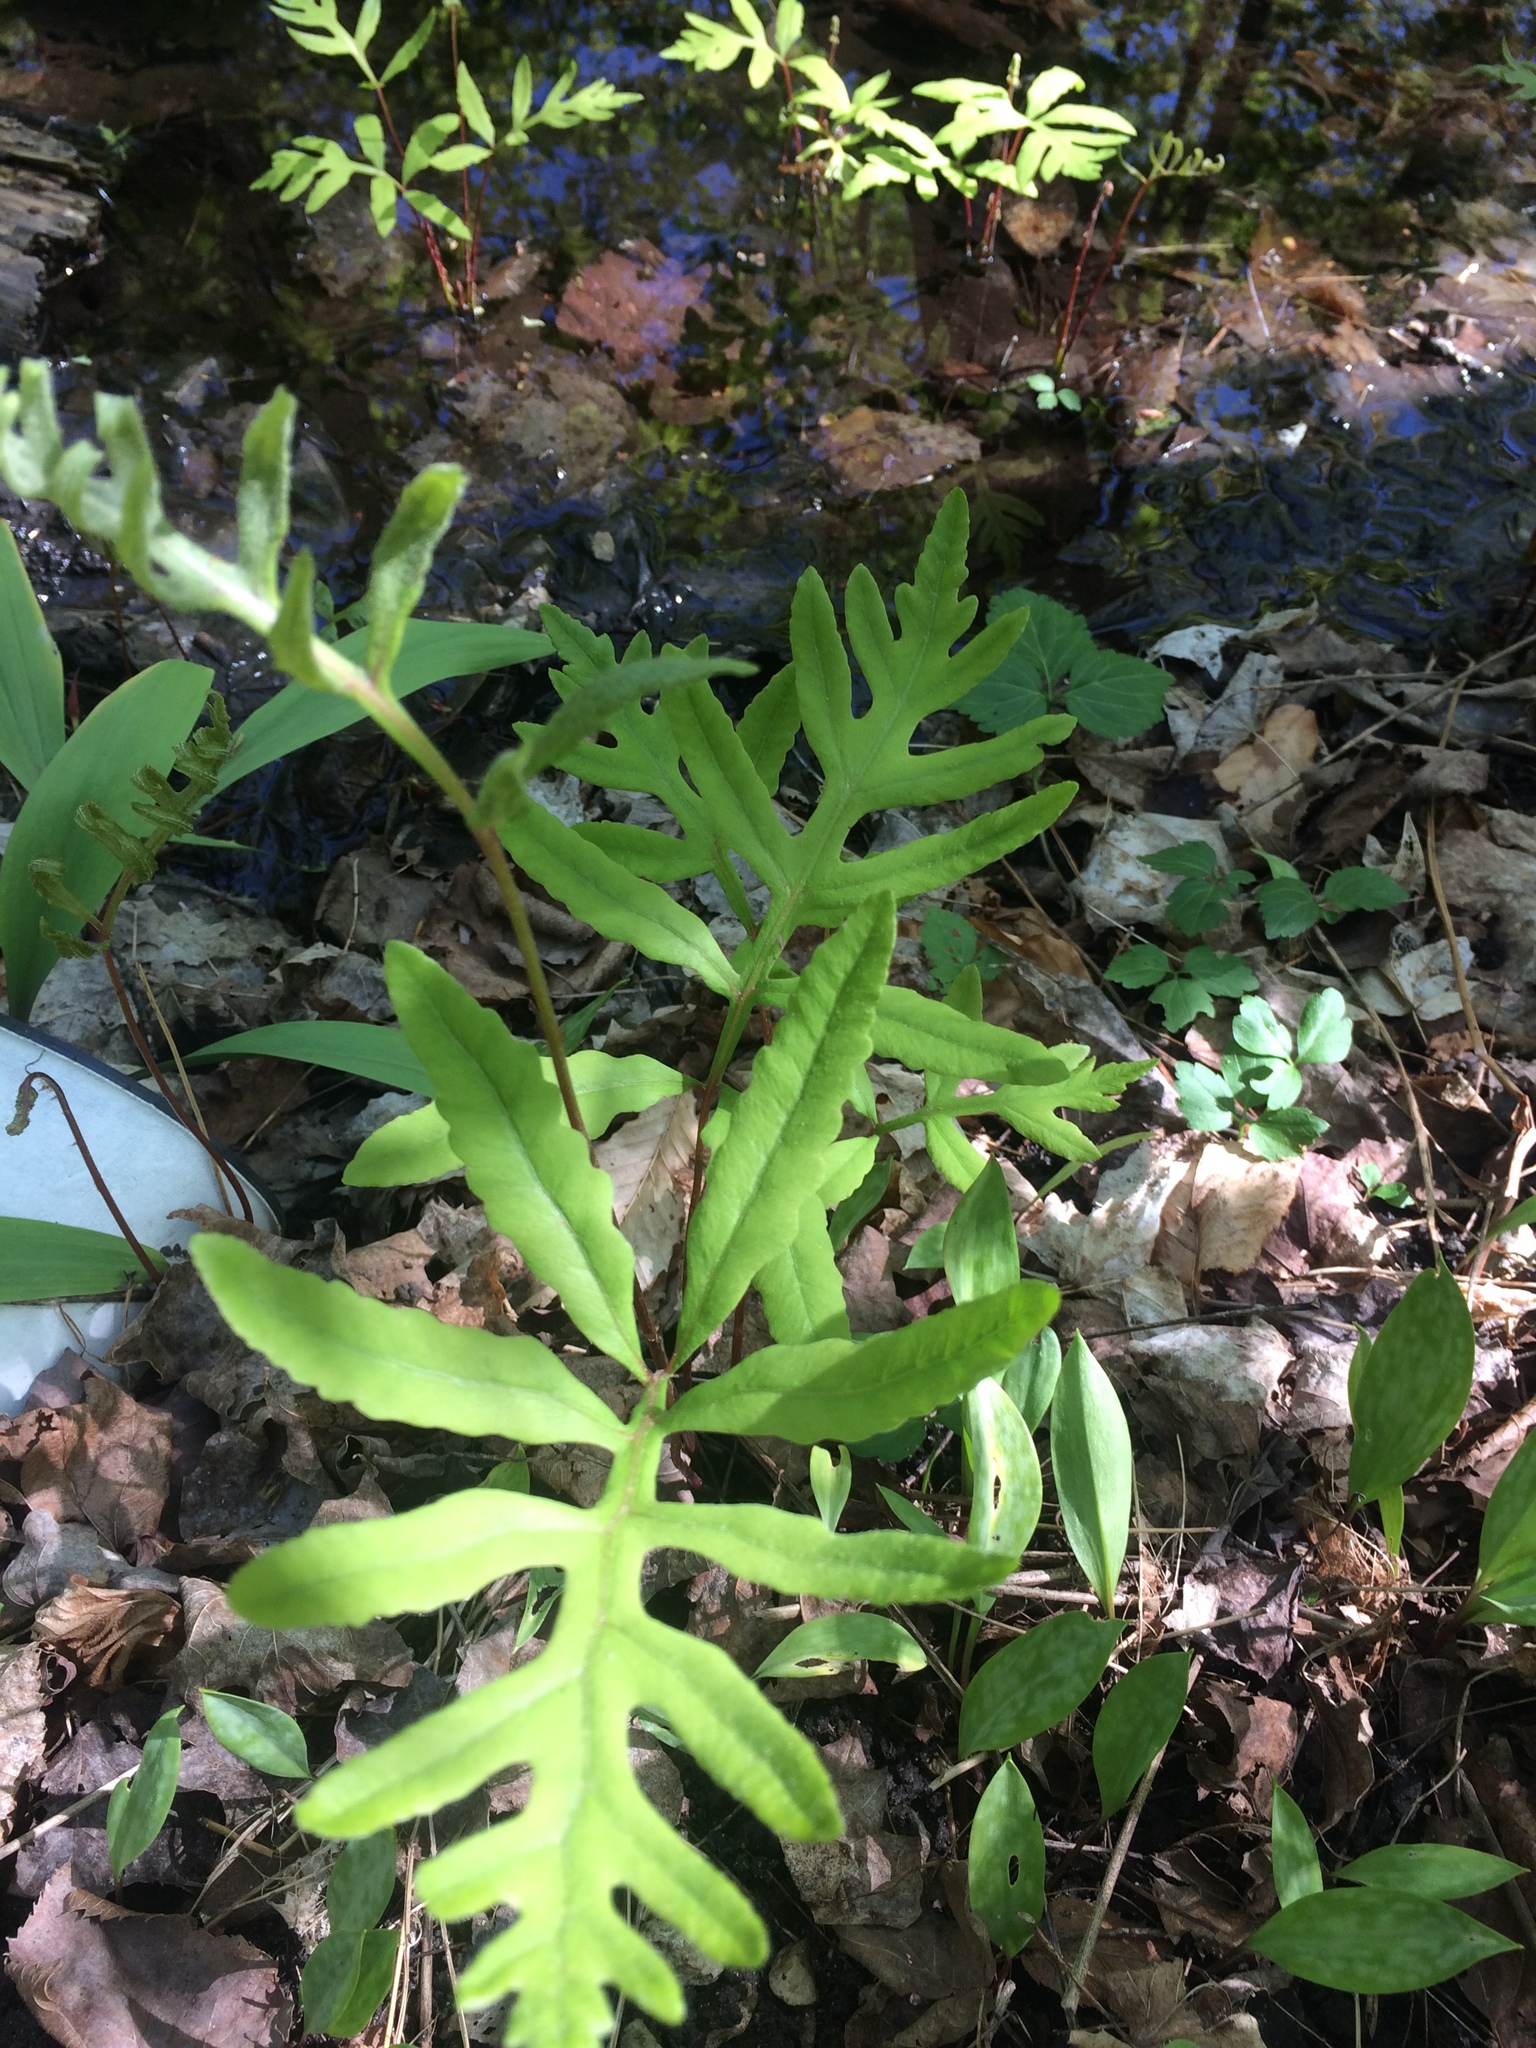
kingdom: Plantae
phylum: Tracheophyta
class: Polypodiopsida
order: Polypodiales
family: Onocleaceae
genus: Onoclea
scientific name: Onoclea sensibilis
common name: Sensitive fern
